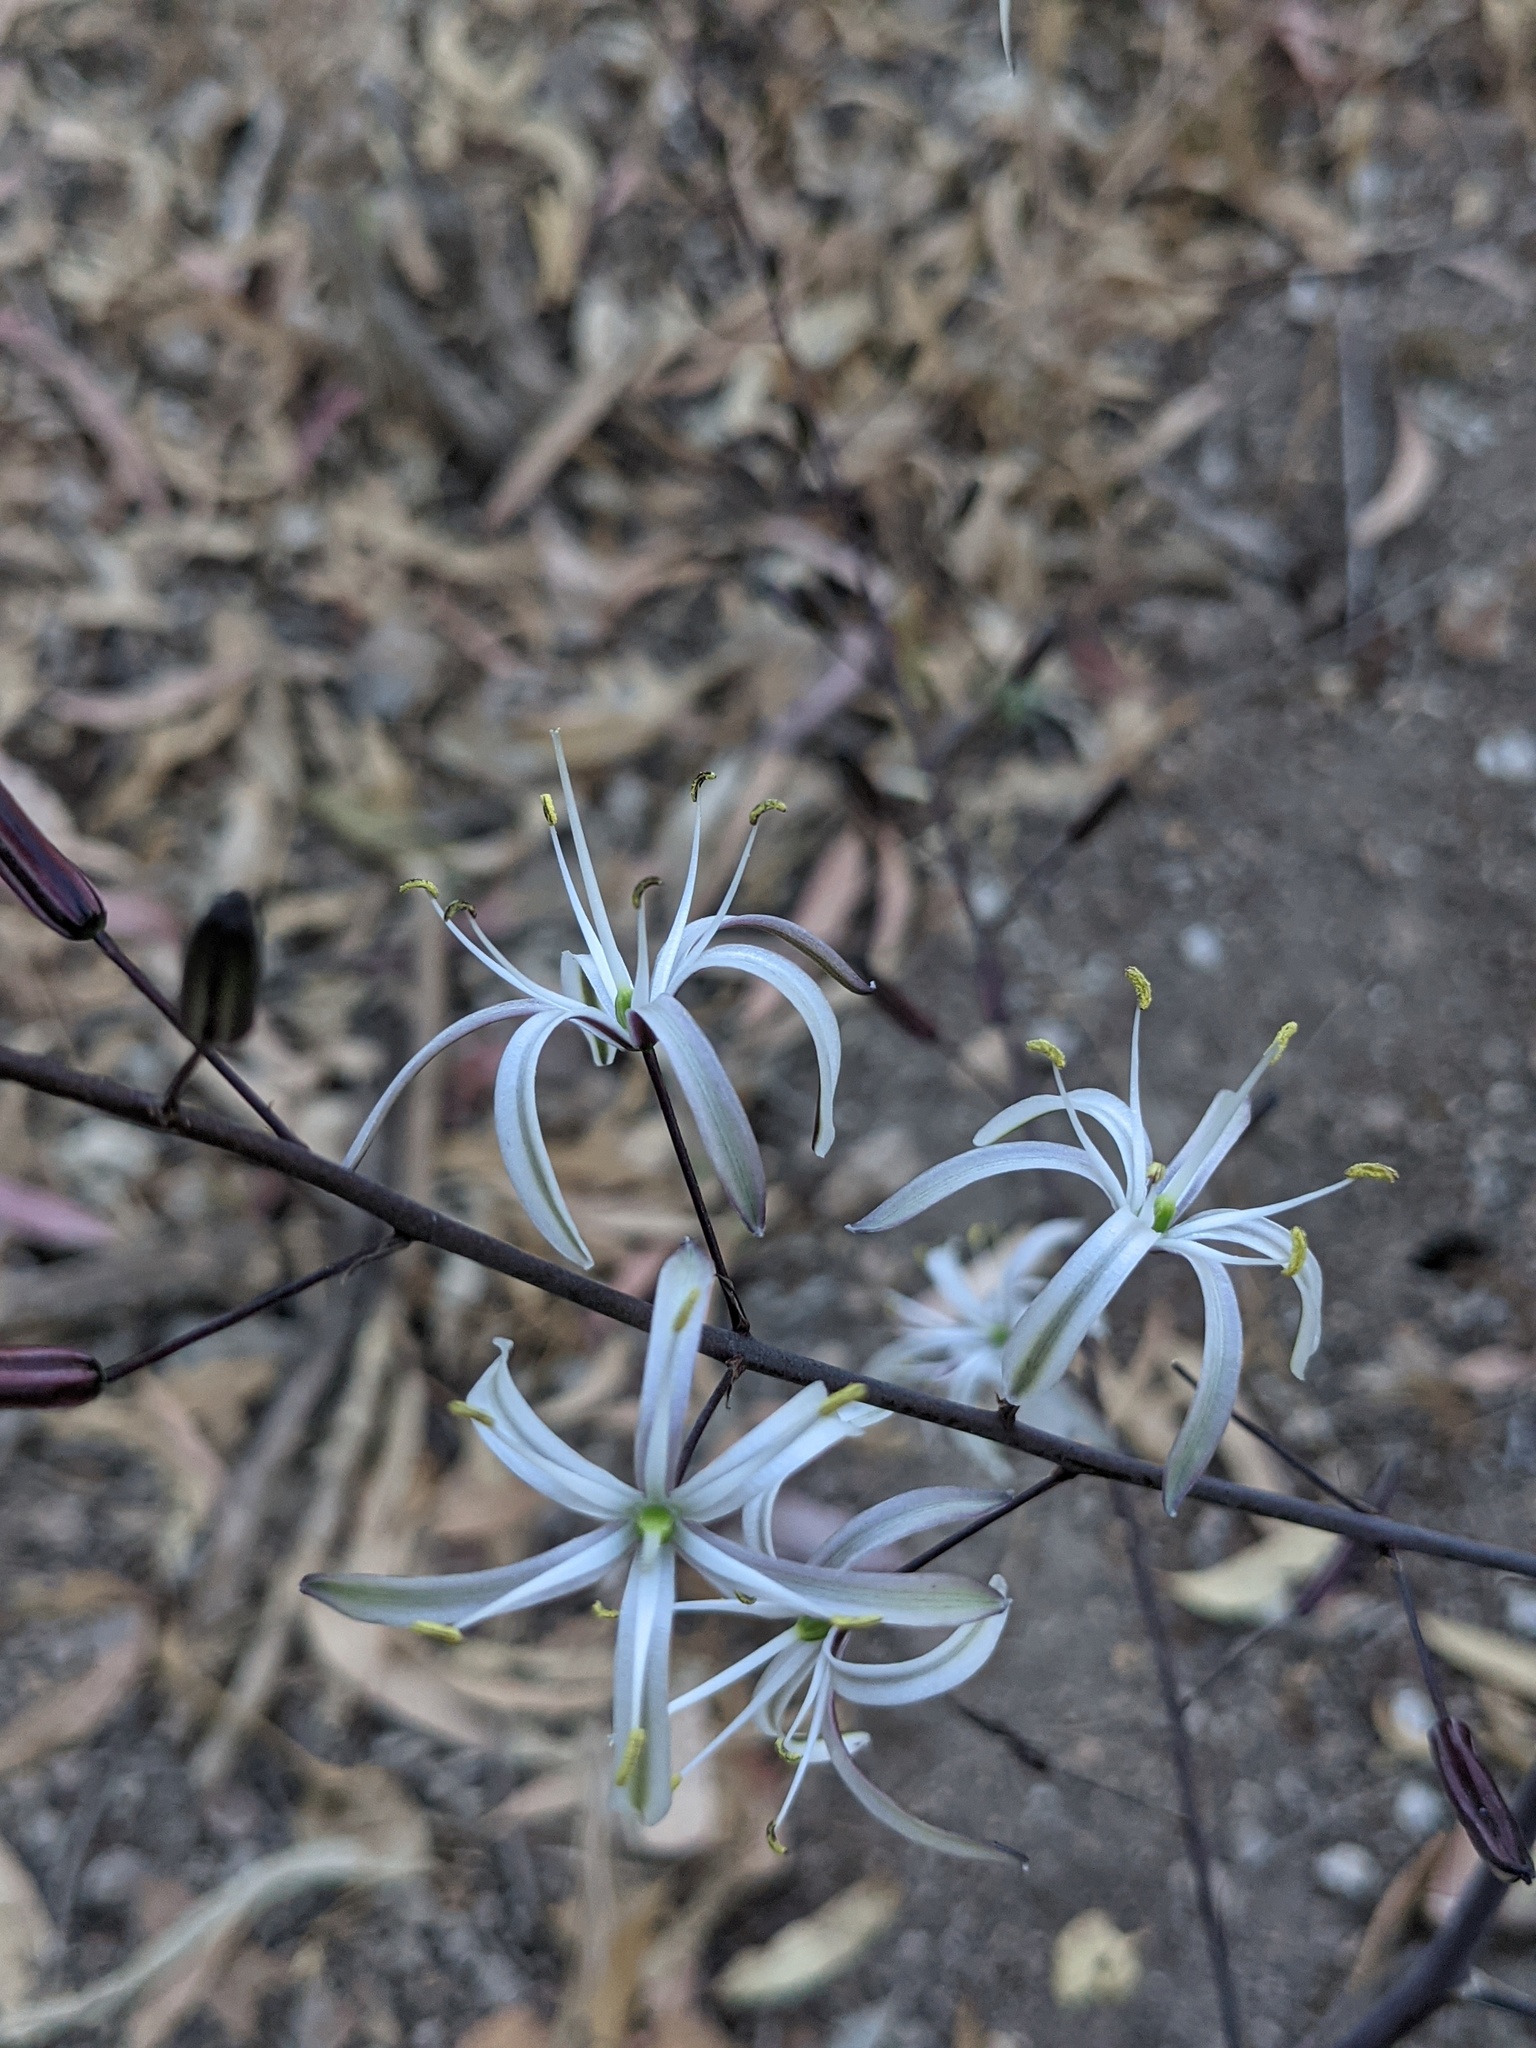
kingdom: Plantae
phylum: Tracheophyta
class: Liliopsida
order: Asparagales
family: Asparagaceae
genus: Chlorogalum
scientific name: Chlorogalum pomeridianum
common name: Amole
